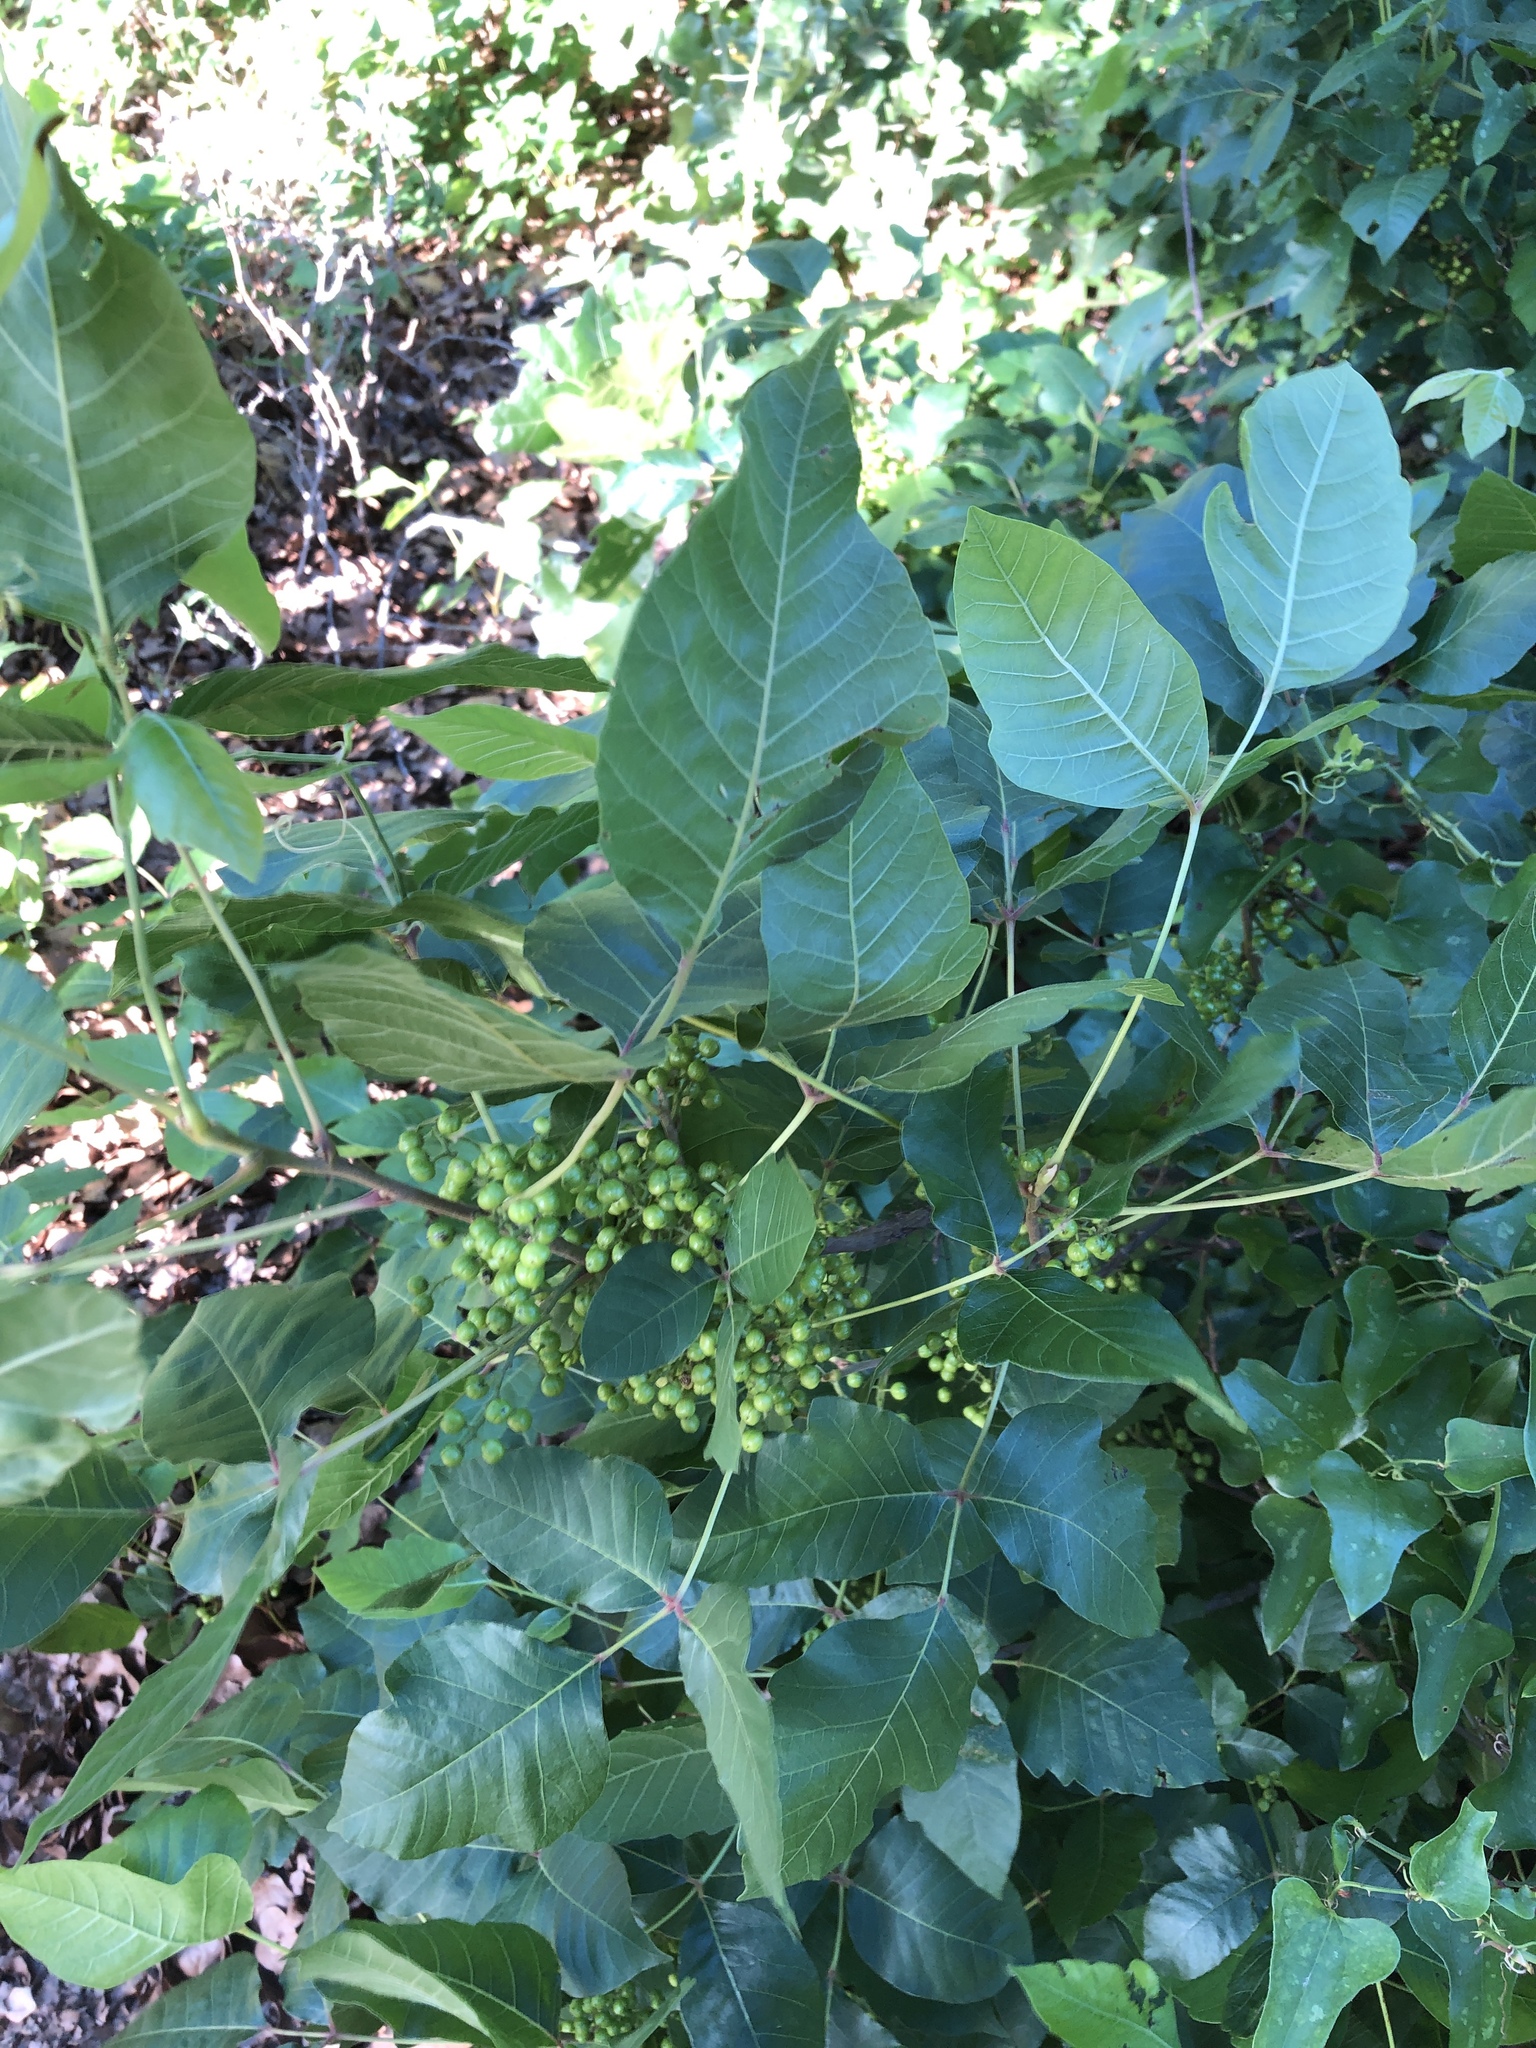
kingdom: Plantae
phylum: Tracheophyta
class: Magnoliopsida
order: Sapindales
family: Anacardiaceae
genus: Toxicodendron
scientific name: Toxicodendron radicans
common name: Poison ivy
